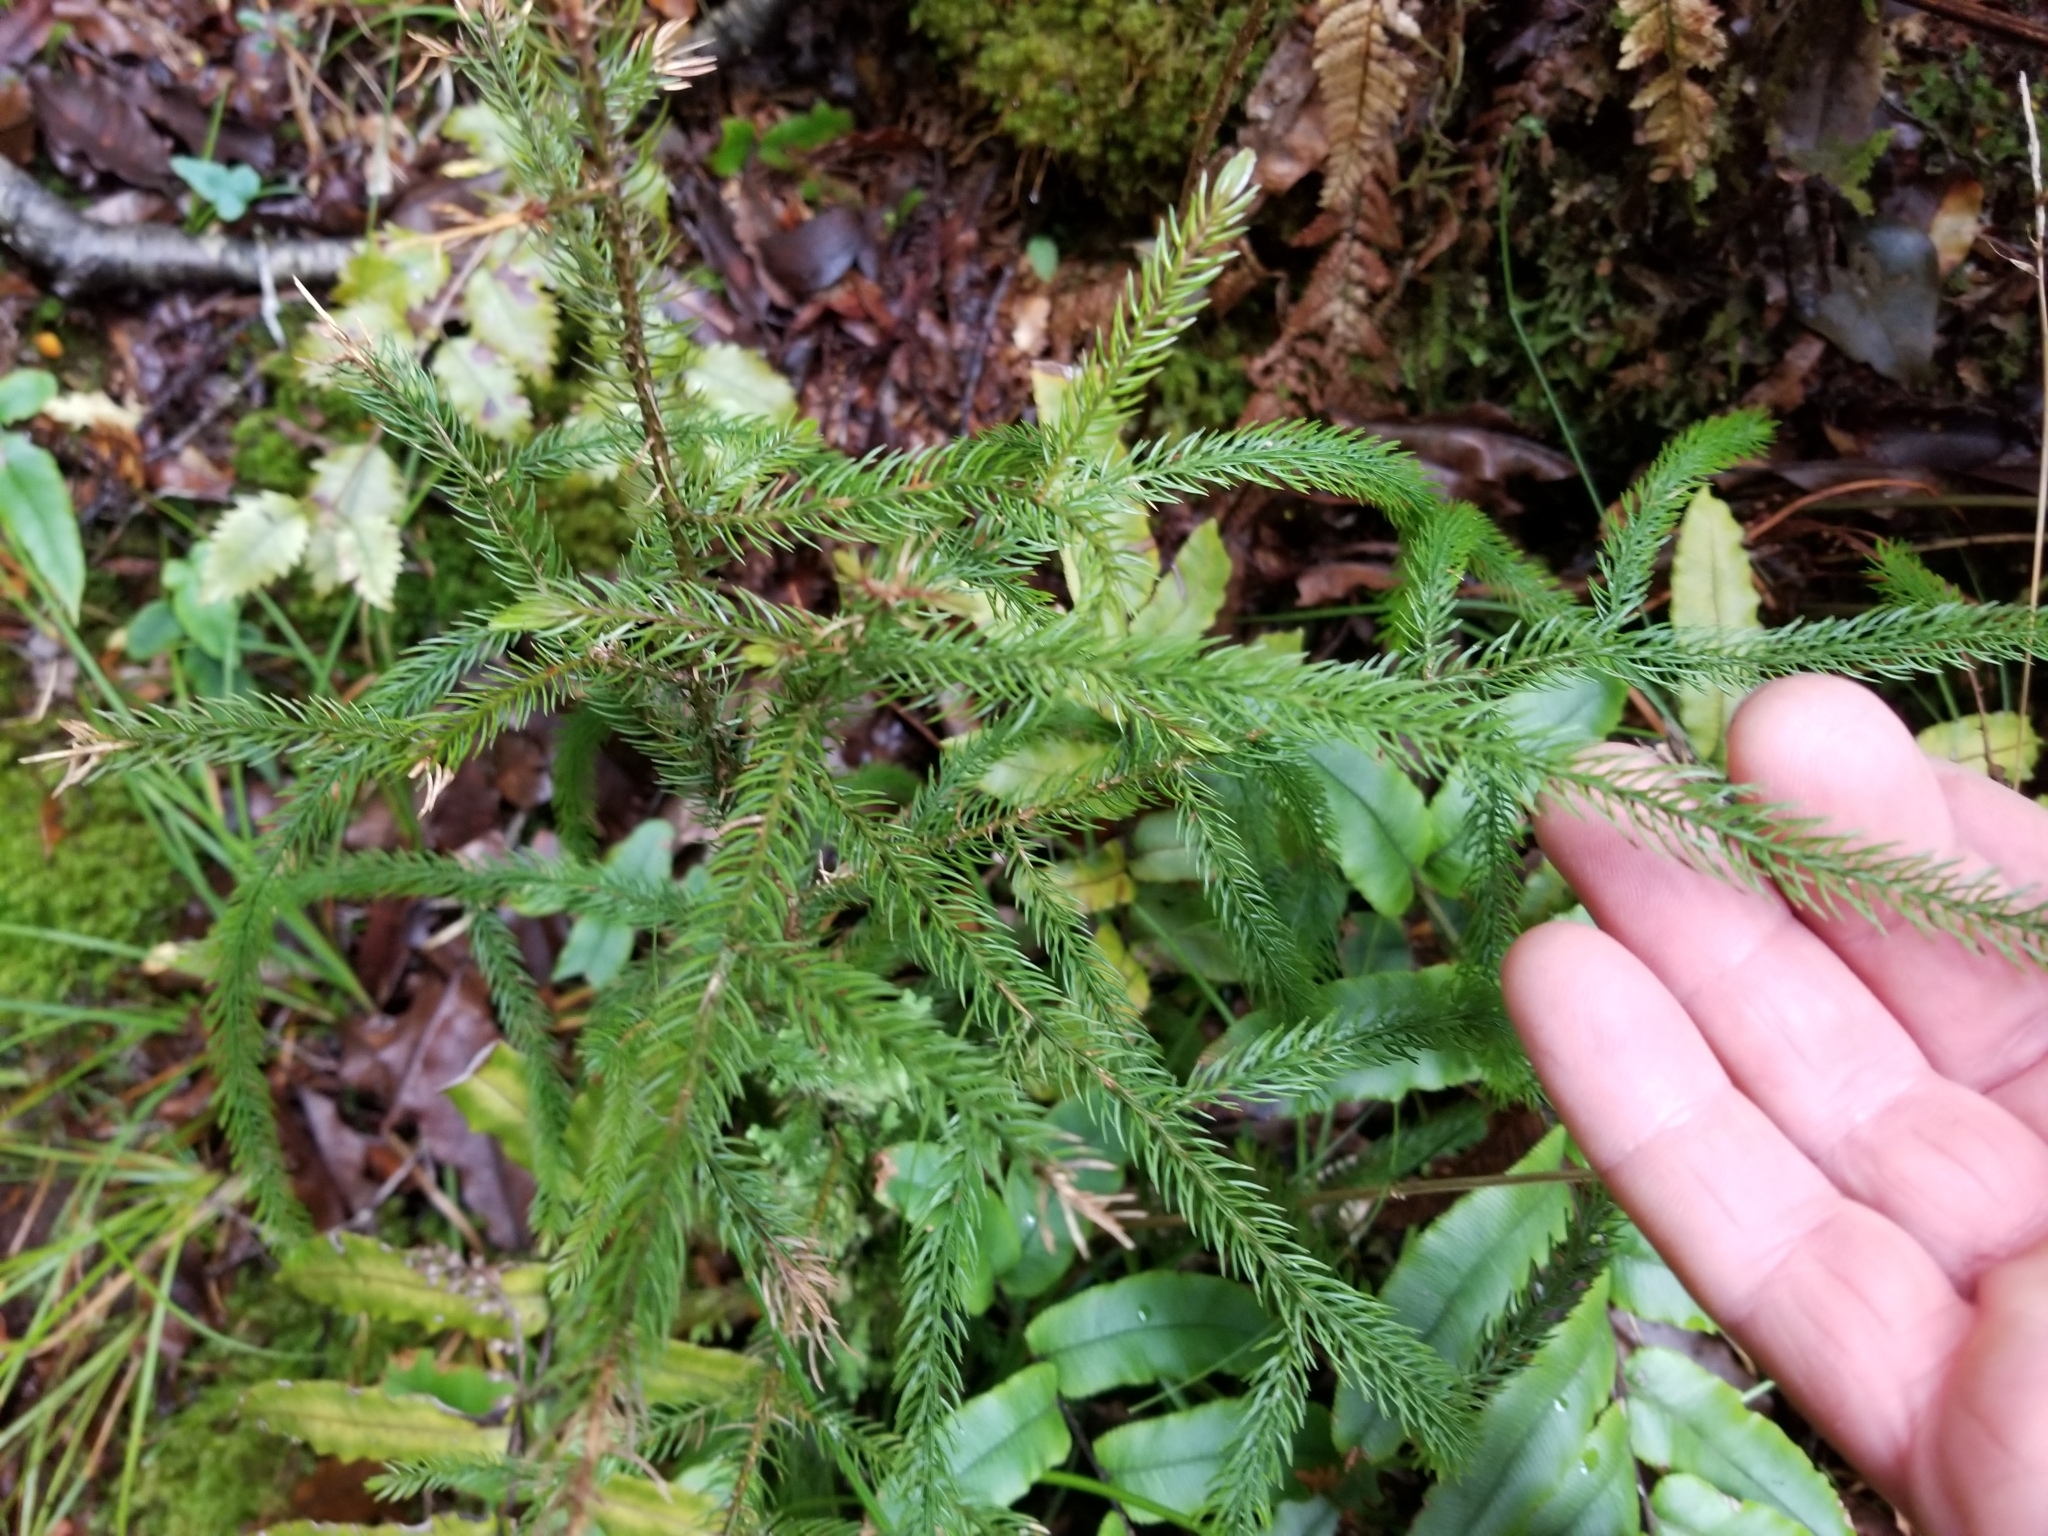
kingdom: Plantae
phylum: Tracheophyta
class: Pinopsida
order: Pinales
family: Podocarpaceae
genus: Dacrydium
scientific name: Dacrydium cupressinum
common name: Red pine
